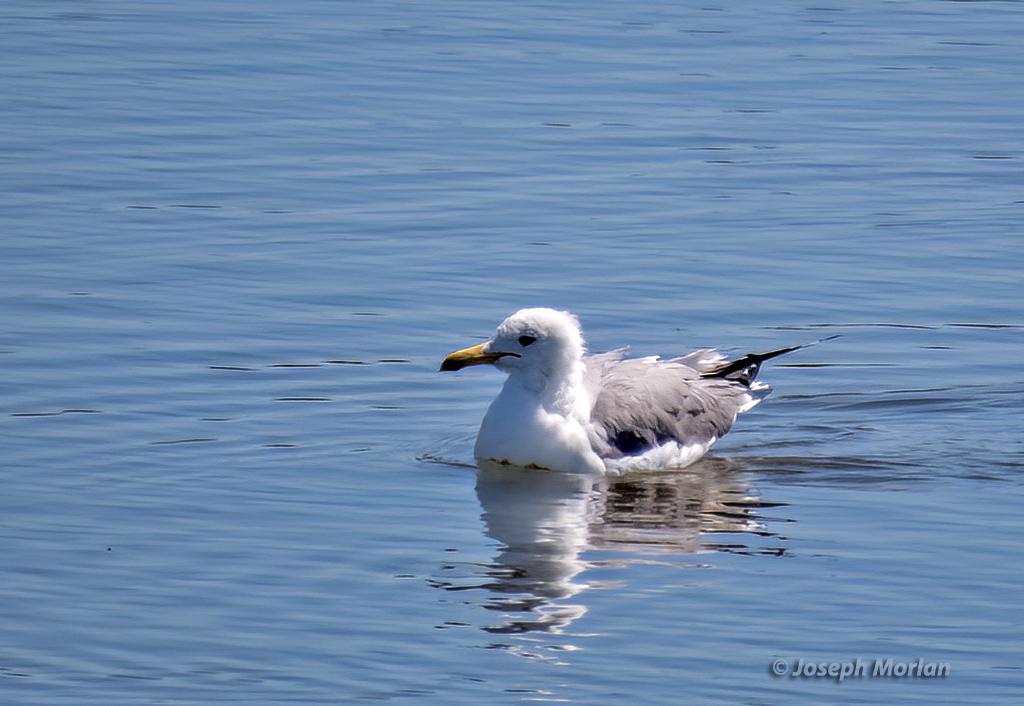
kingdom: Animalia
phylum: Chordata
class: Aves
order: Charadriiformes
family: Laridae
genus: Larus
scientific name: Larus californicus
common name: California gull
